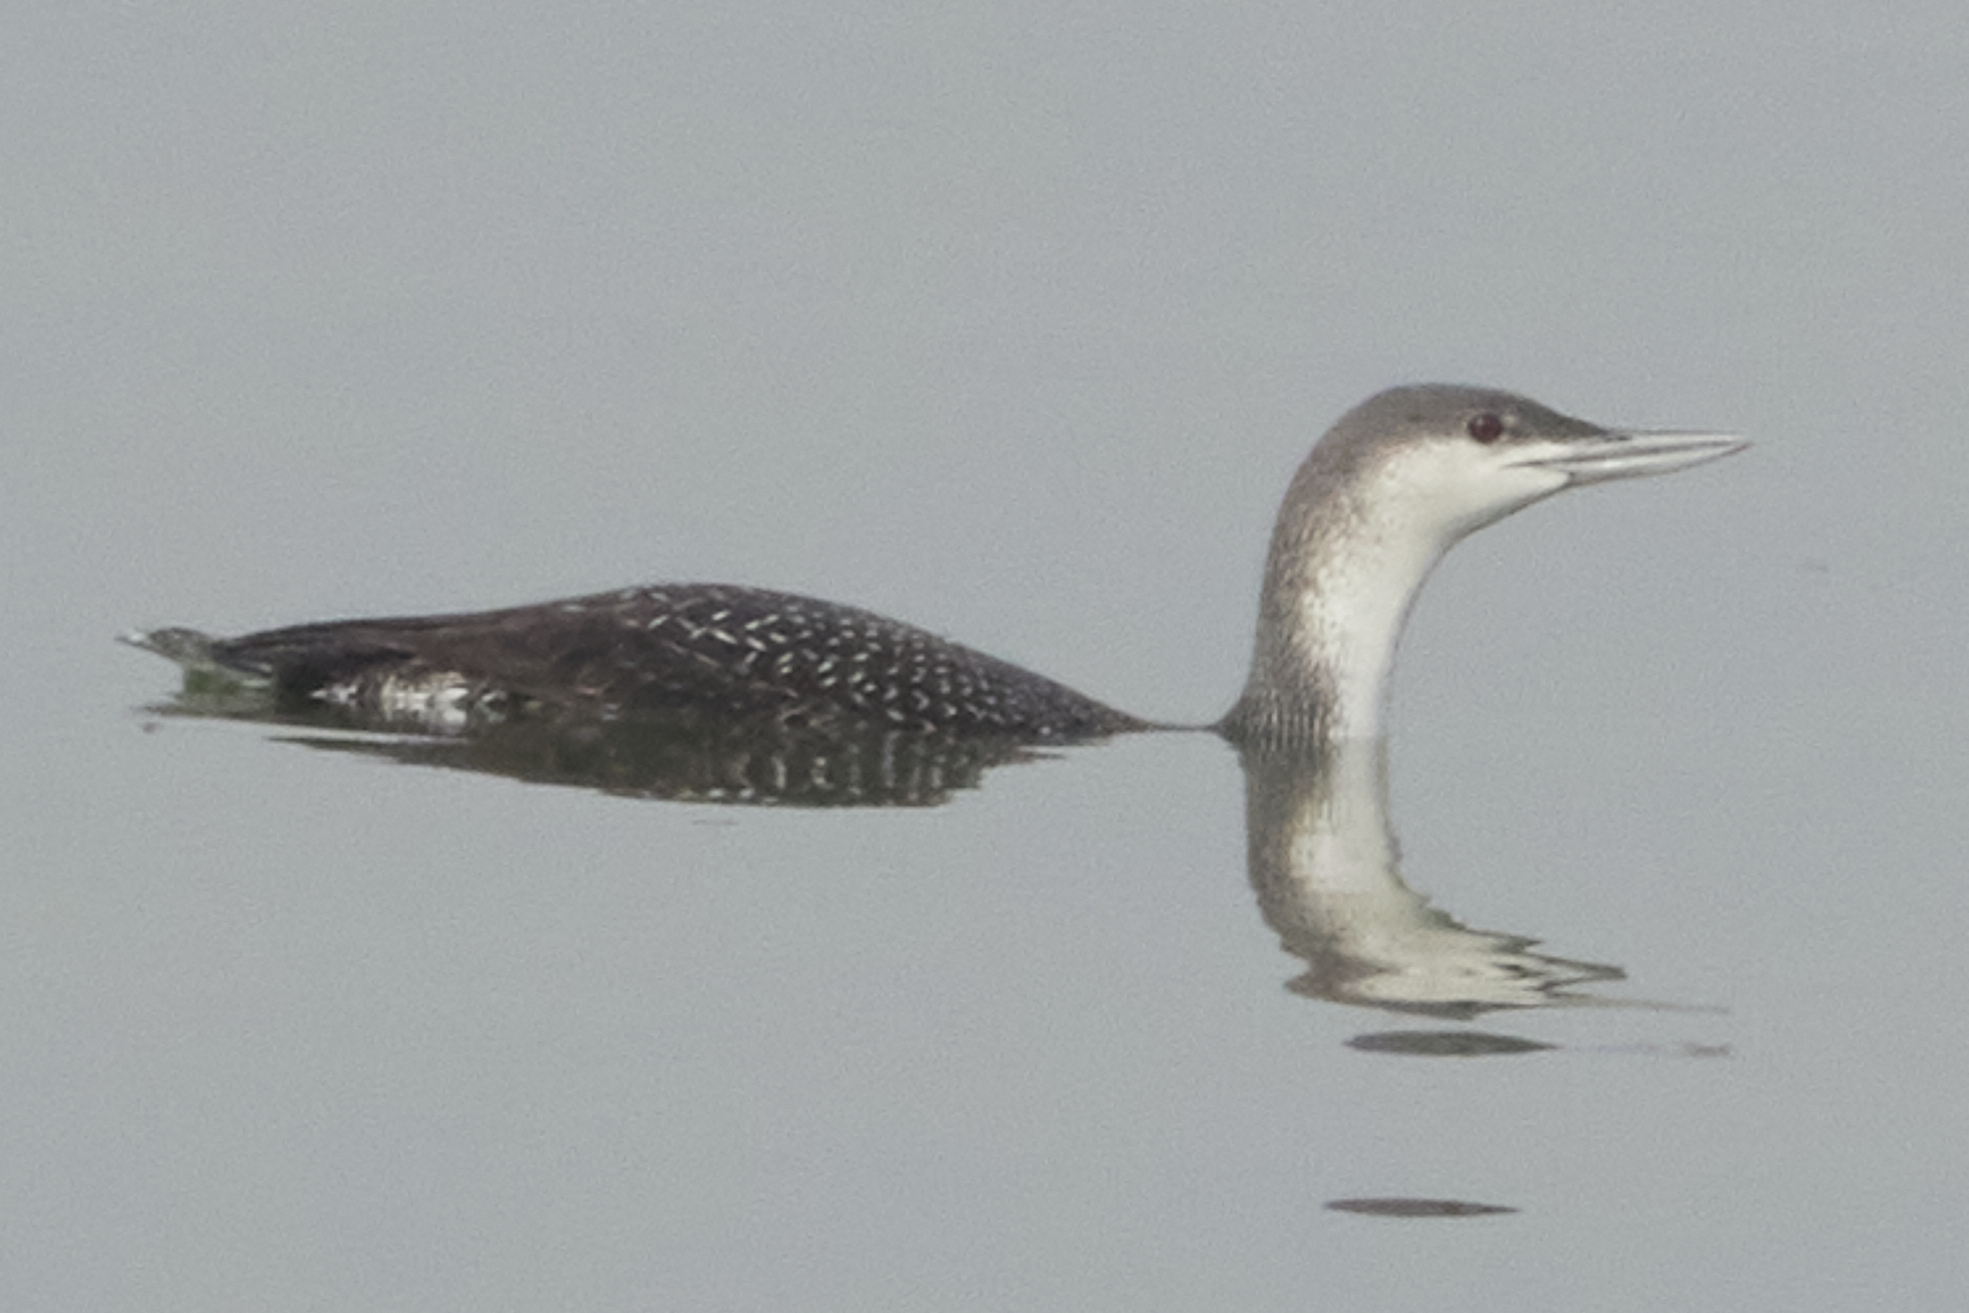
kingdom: Animalia
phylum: Chordata
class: Aves
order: Gaviiformes
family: Gaviidae
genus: Gavia
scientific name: Gavia stellata
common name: Red-throated loon
